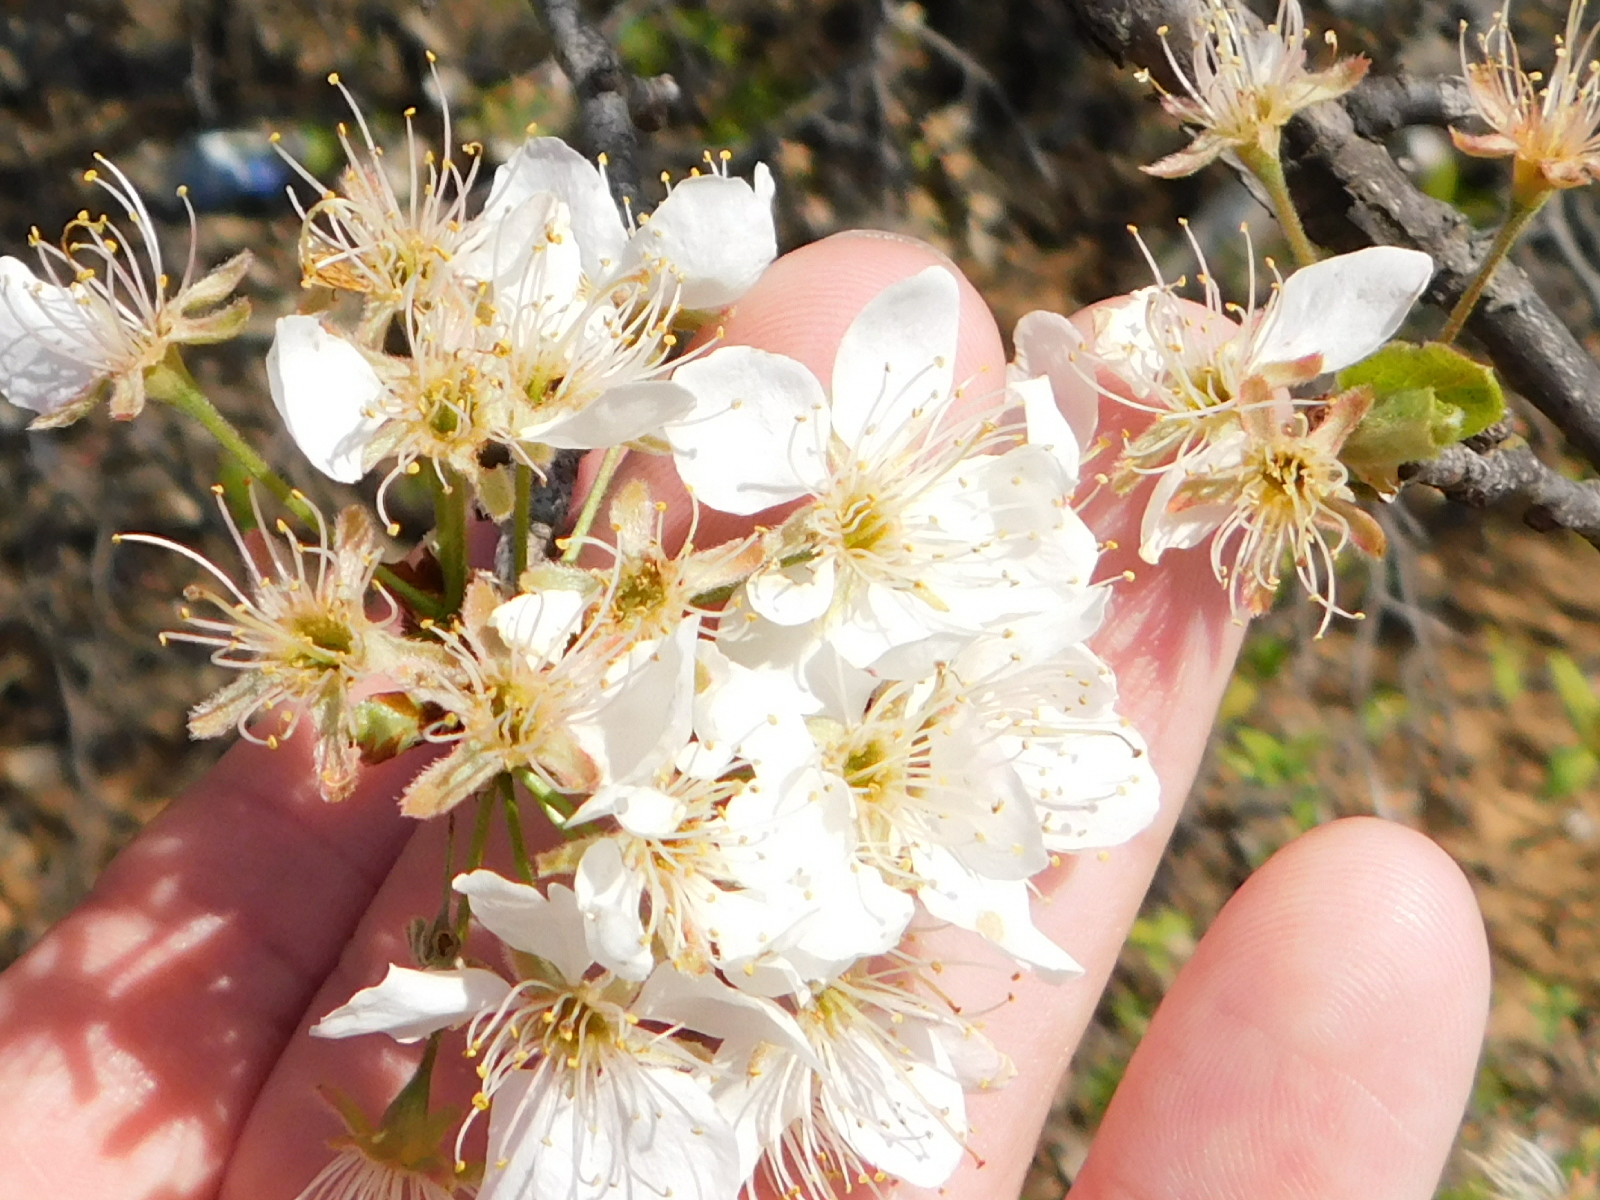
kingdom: Plantae
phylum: Tracheophyta
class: Magnoliopsida
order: Rosales
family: Rosaceae
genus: Prunus
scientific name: Prunus mexicana
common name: Mexican plum
